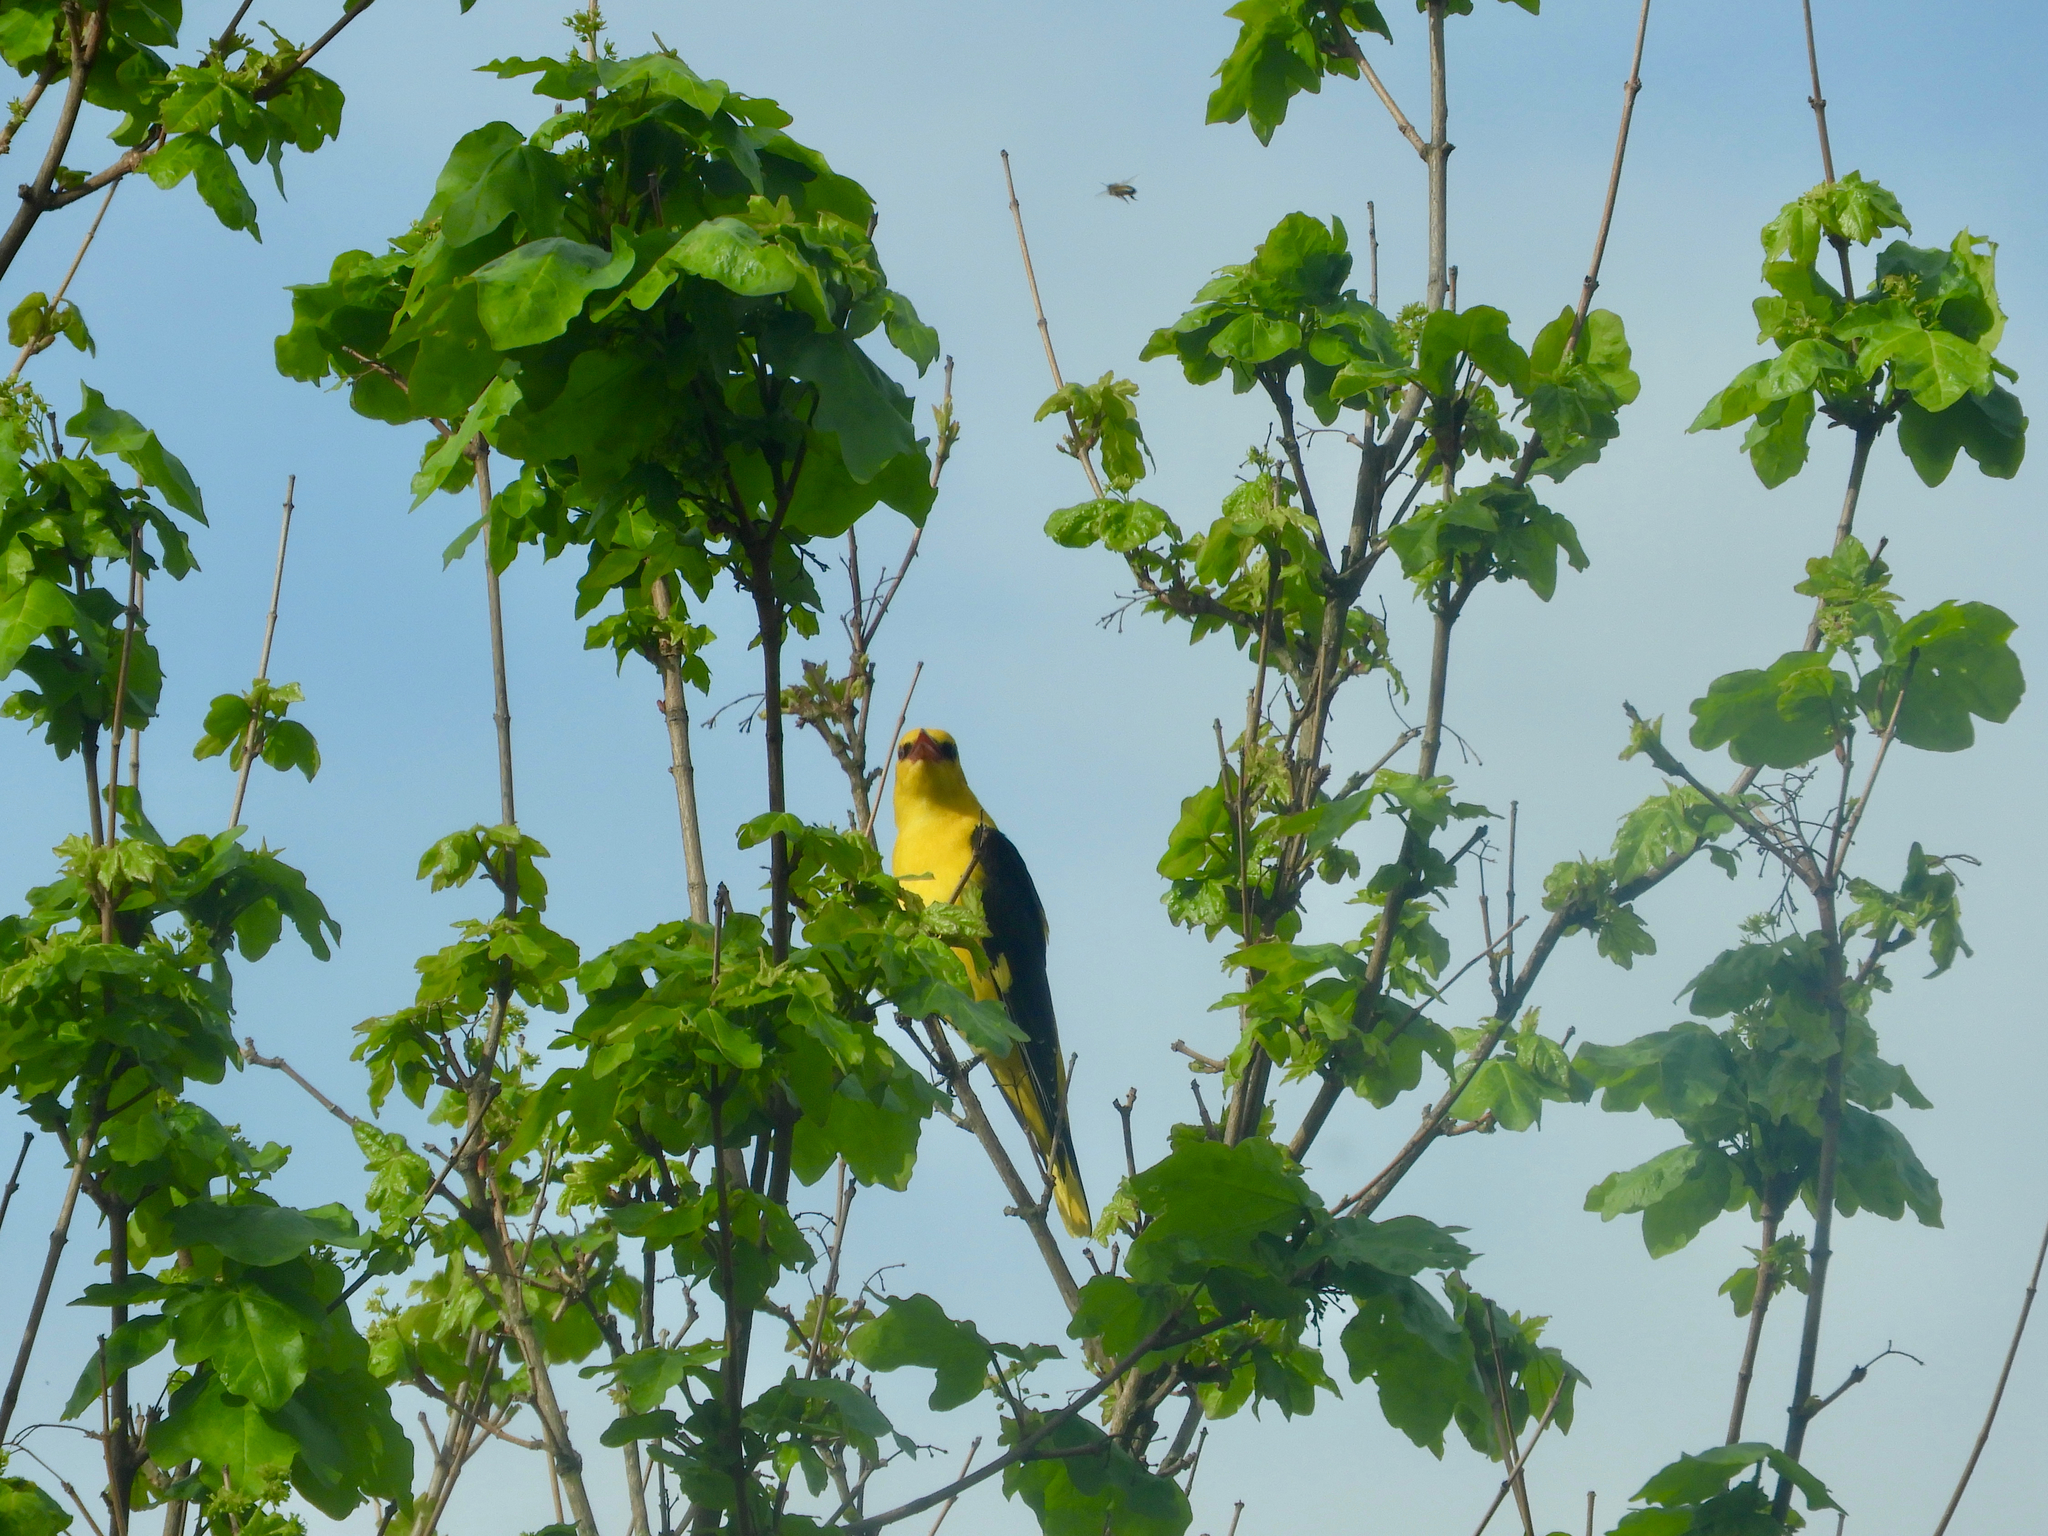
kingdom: Animalia
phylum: Chordata
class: Aves
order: Passeriformes
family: Oriolidae
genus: Oriolus
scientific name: Oriolus oriolus
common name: Eurasian golden oriole
